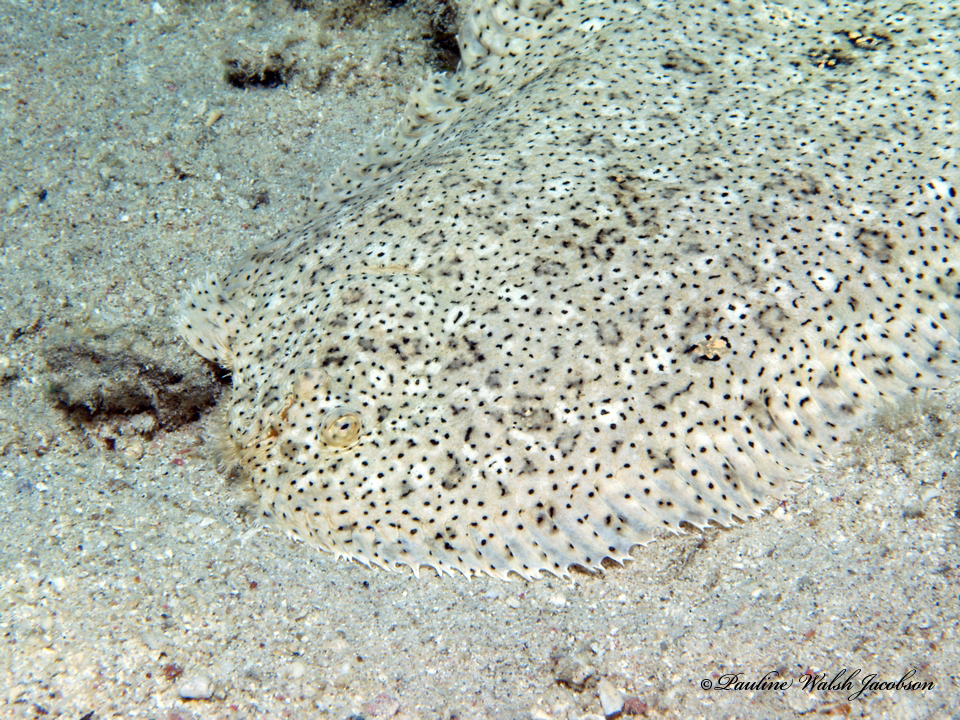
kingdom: Animalia
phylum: Chordata
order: Pleuronectiformes
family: Soleidae
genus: Pardachirus
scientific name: Pardachirus marmoratus
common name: Finless sole
